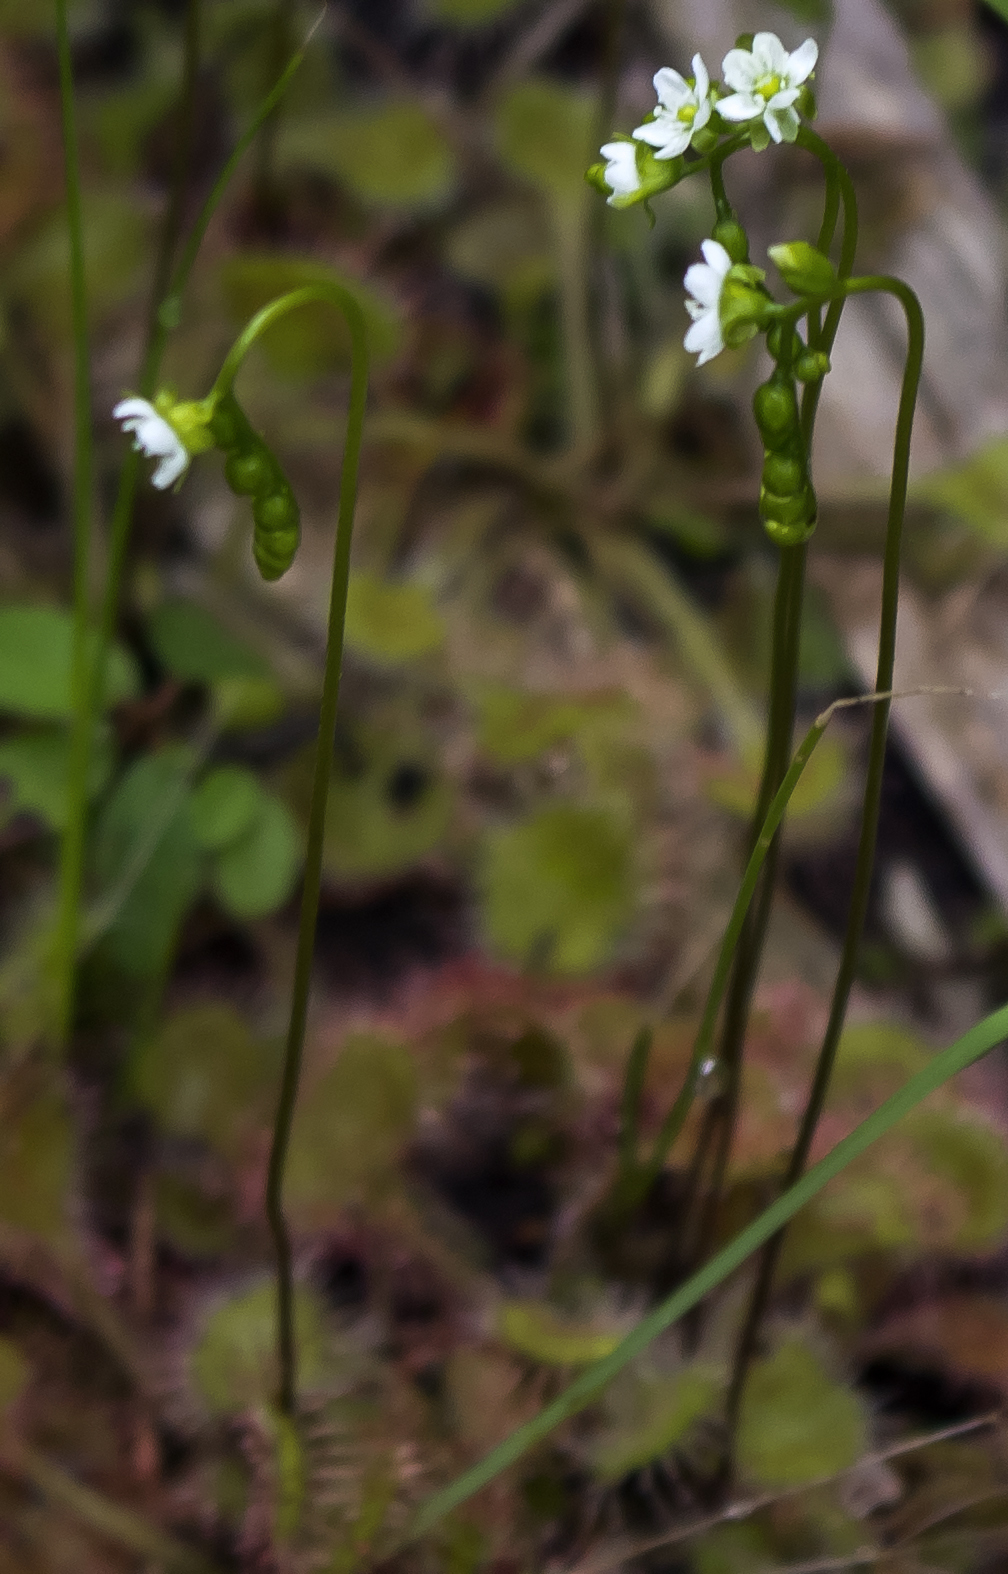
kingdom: Plantae
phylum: Tracheophyta
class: Magnoliopsida
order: Caryophyllales
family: Droseraceae
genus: Drosera
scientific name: Drosera rotundifolia
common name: Round-leaved sundew
